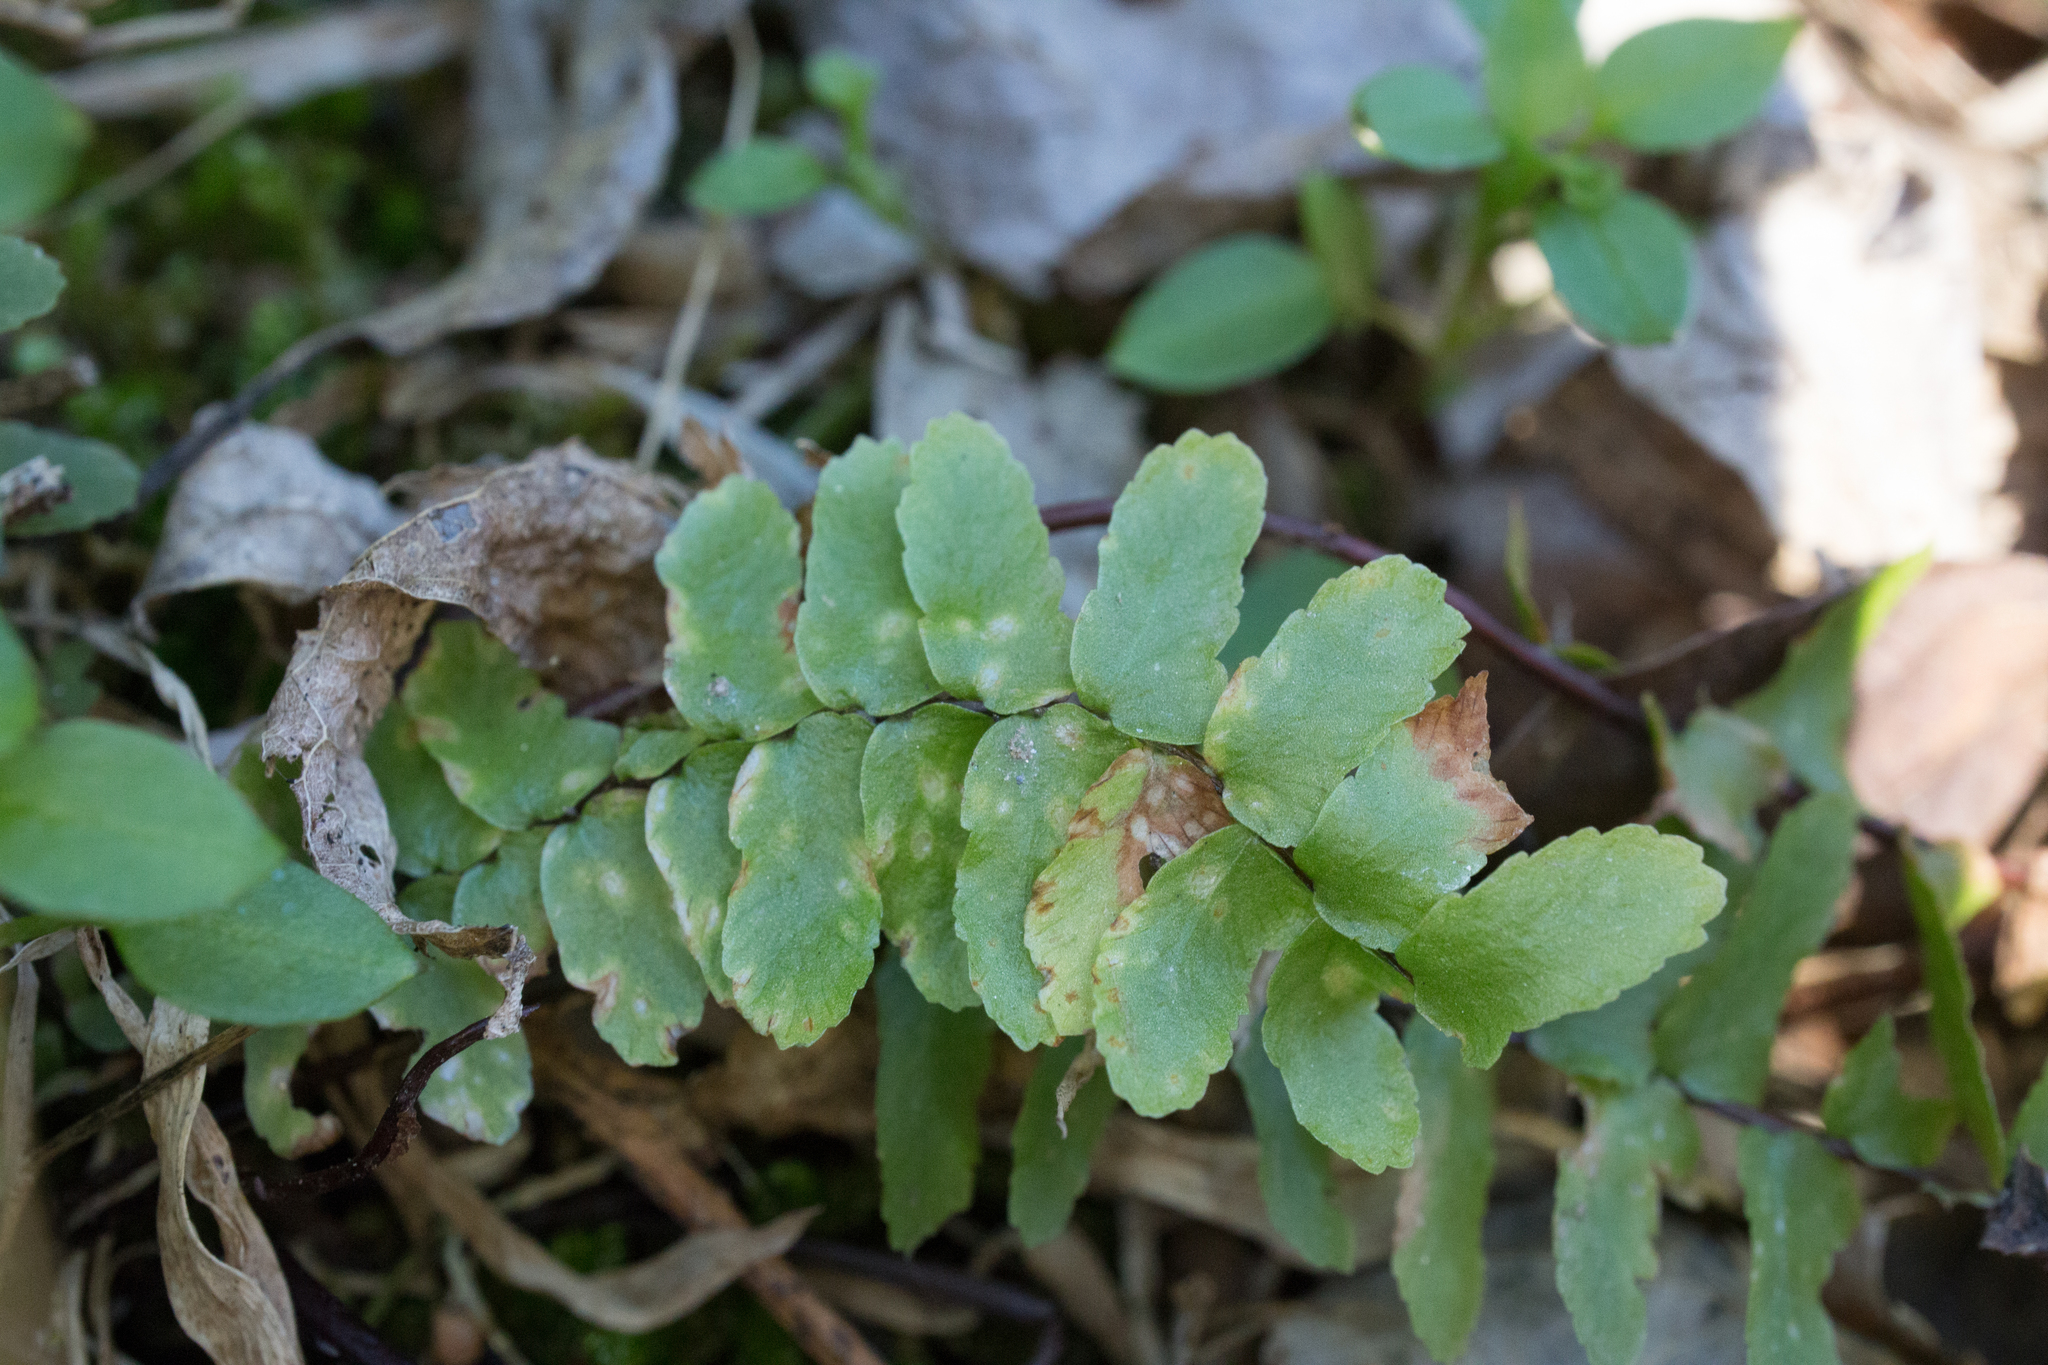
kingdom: Plantae
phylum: Tracheophyta
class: Polypodiopsida
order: Polypodiales
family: Aspleniaceae
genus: Asplenium
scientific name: Asplenium platyneuron
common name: Ebony spleenwort
